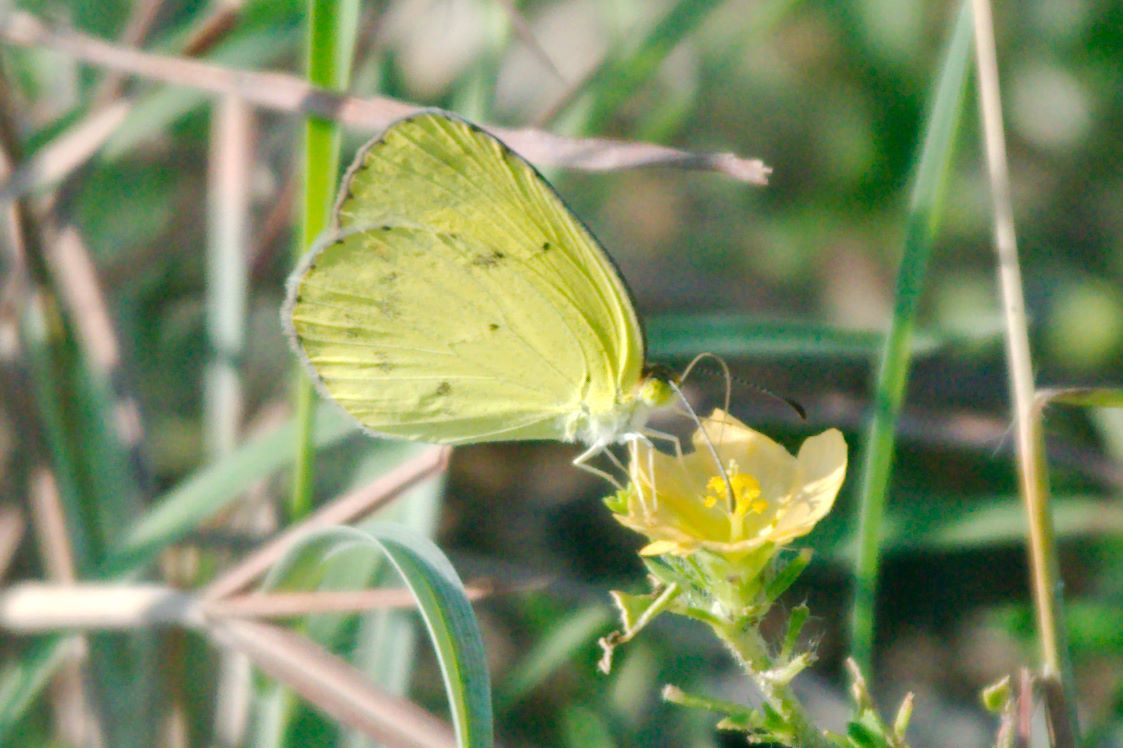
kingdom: Animalia
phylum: Arthropoda
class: Insecta
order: Lepidoptera
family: Pieridae
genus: Pyrisitia
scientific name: Pyrisitia lisa
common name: Little yellow
